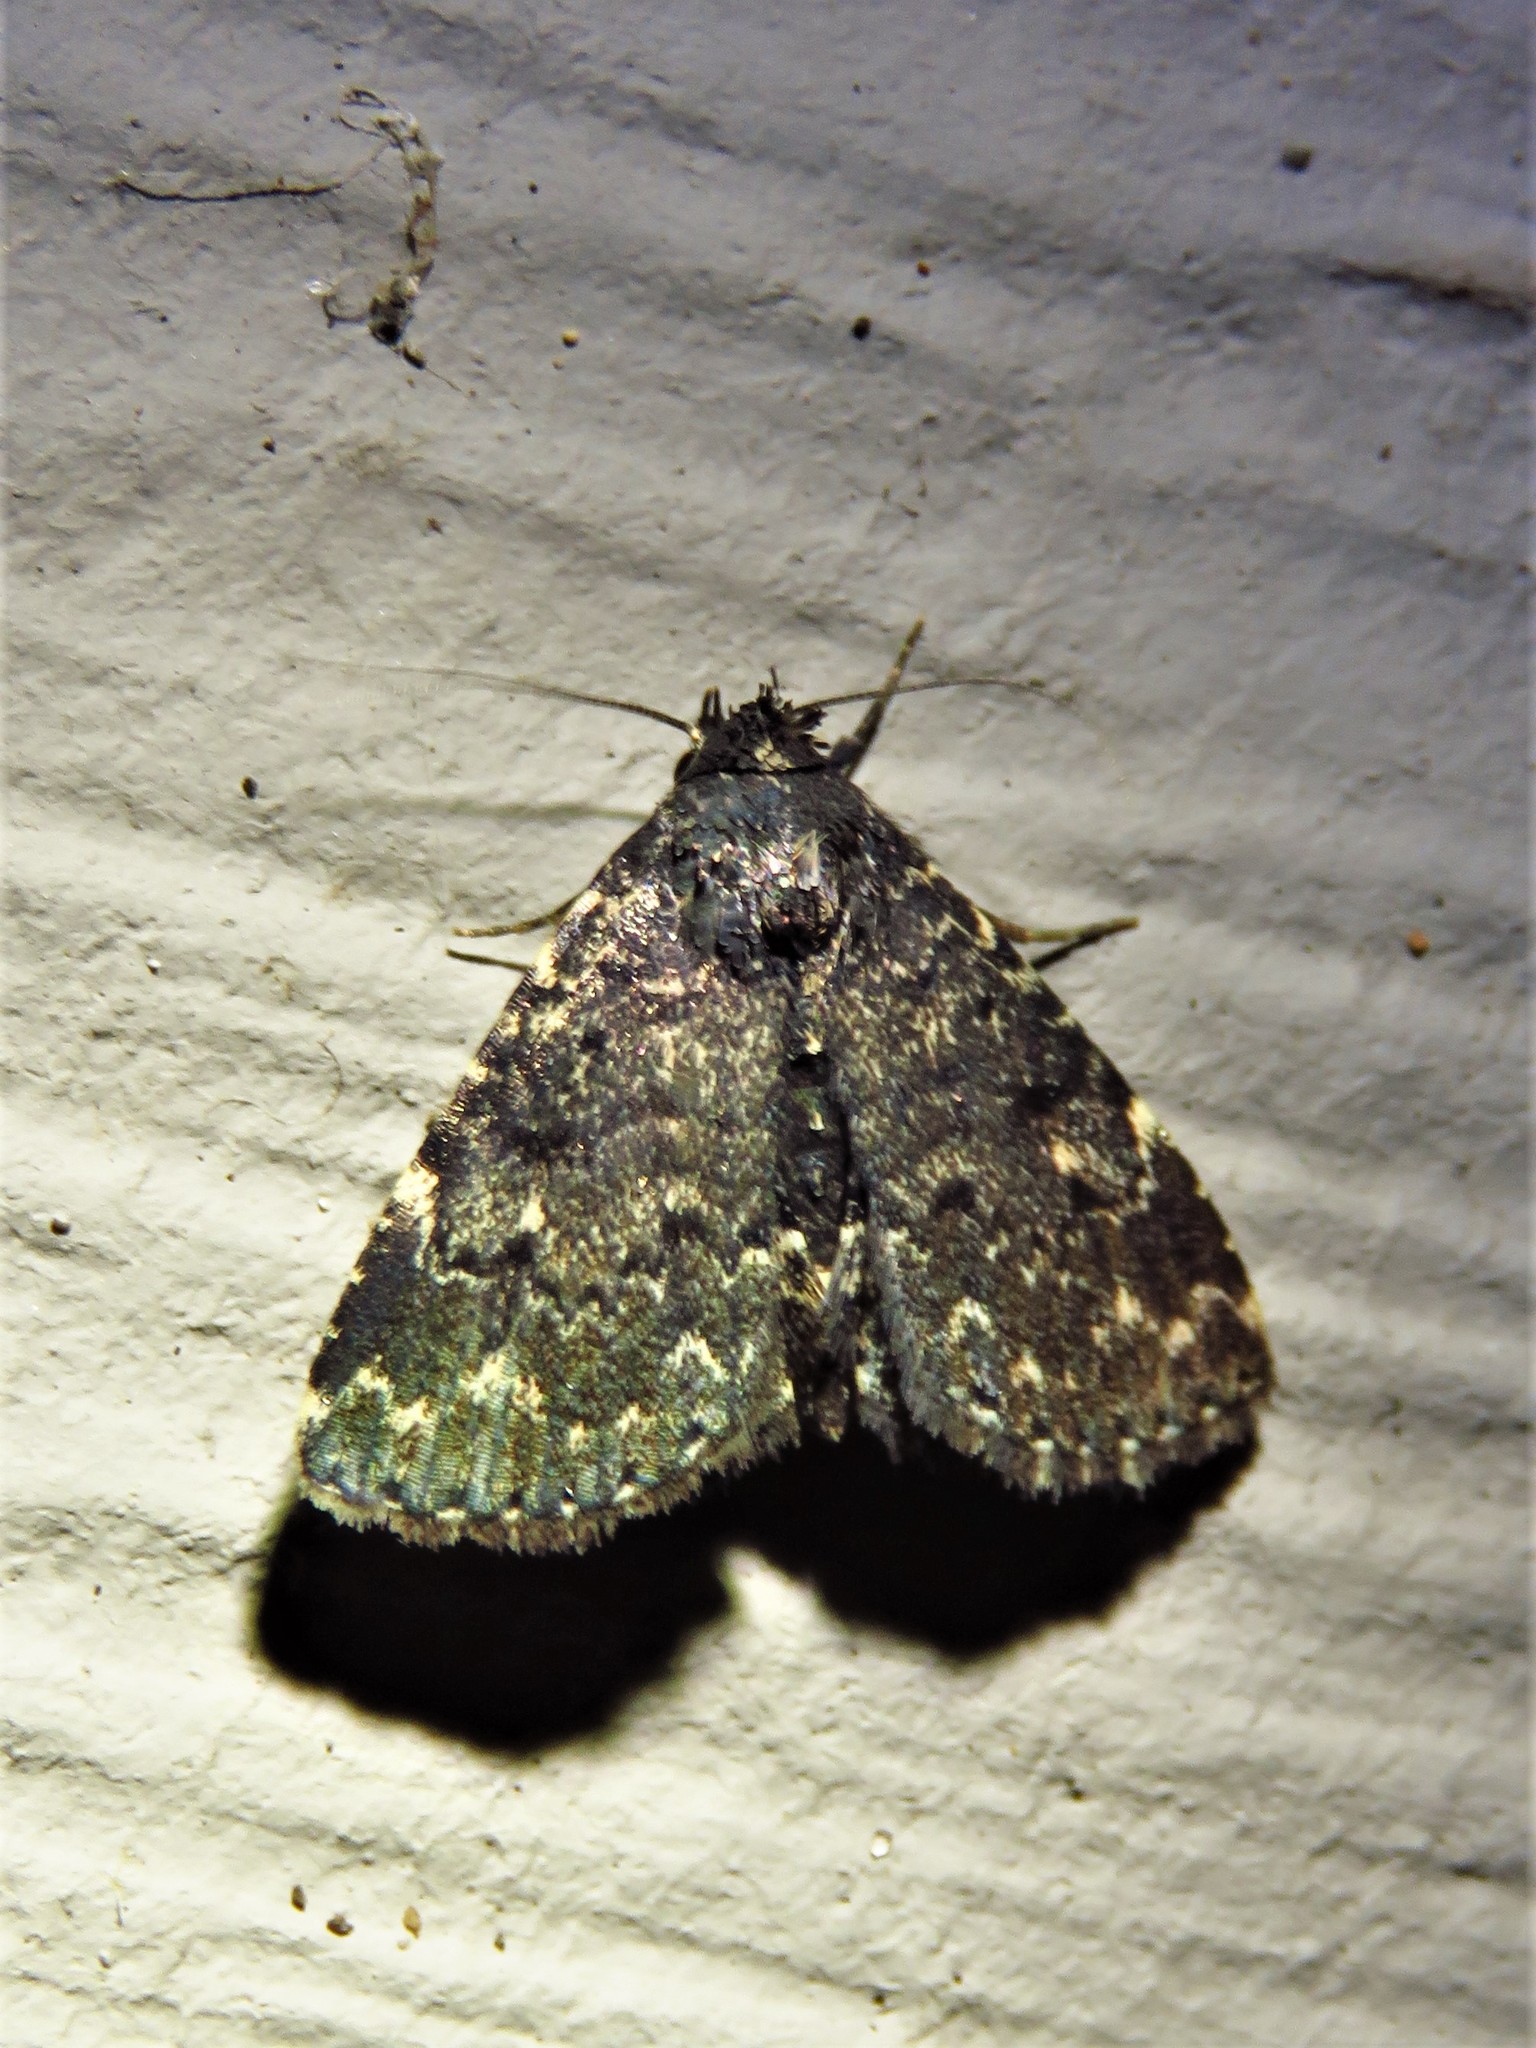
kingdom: Animalia
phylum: Arthropoda
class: Insecta
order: Lepidoptera
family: Erebidae
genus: Metalectra
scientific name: Metalectra diabolica
